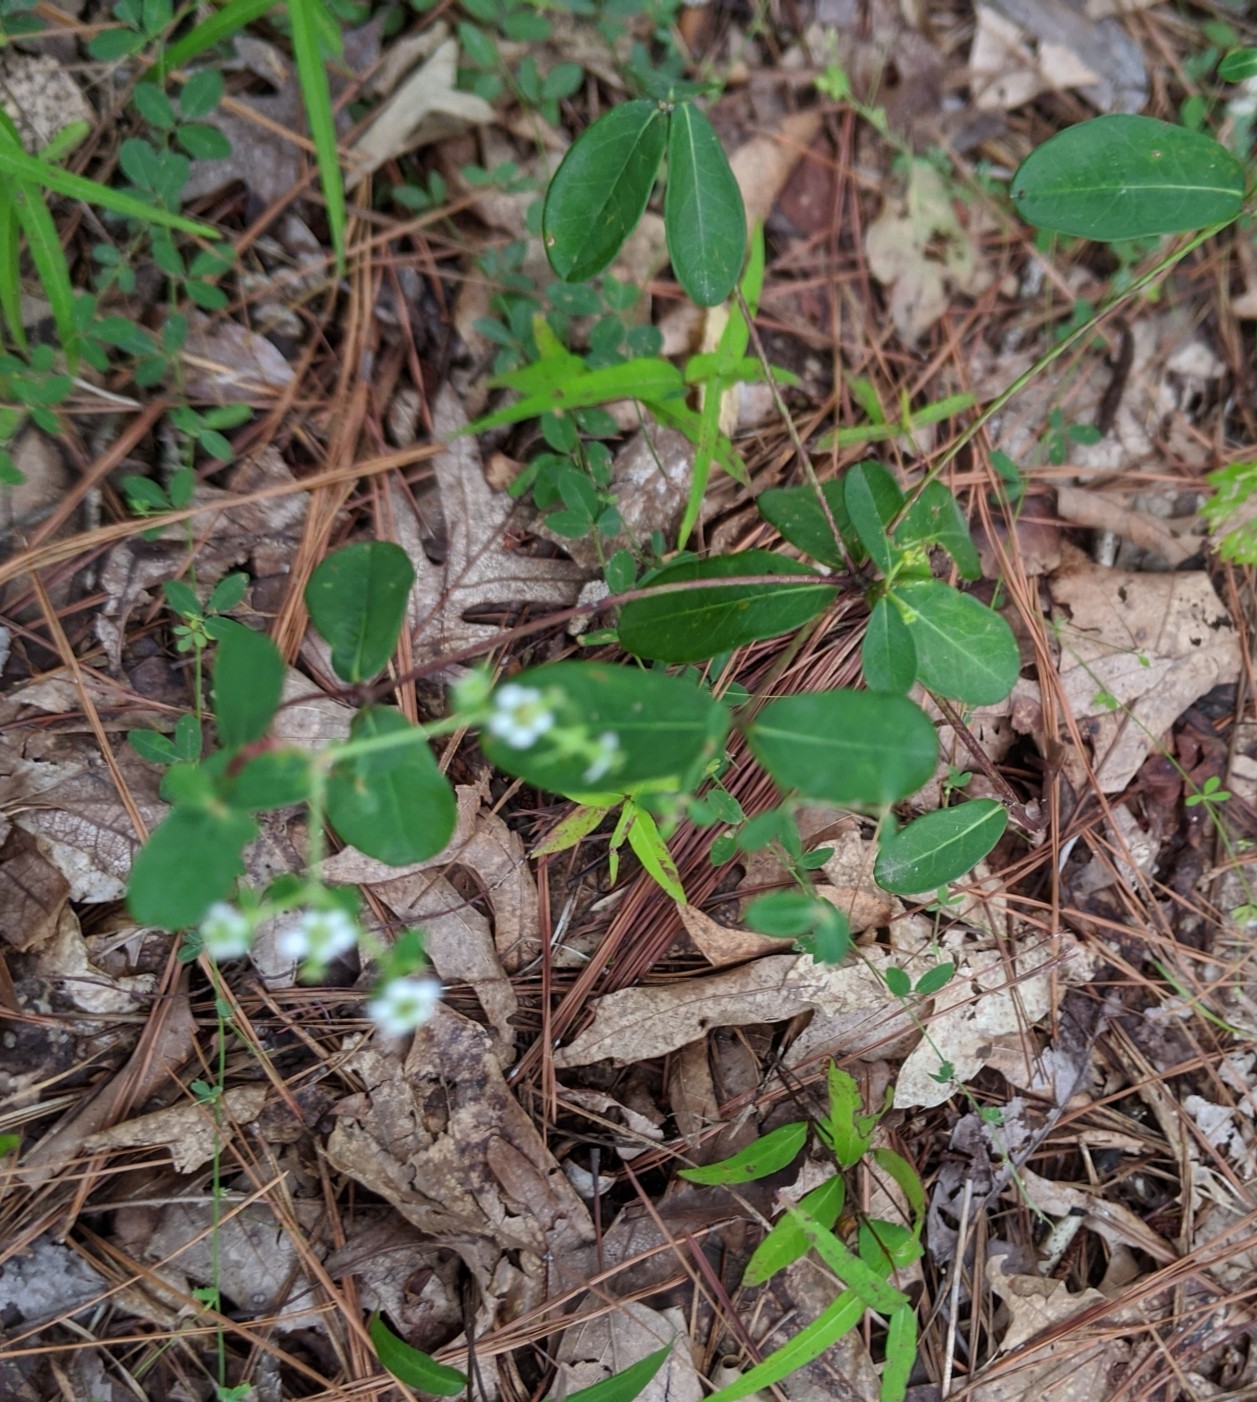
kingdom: Plantae
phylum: Tracheophyta
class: Magnoliopsida
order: Malpighiales
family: Euphorbiaceae
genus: Euphorbia
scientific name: Euphorbia corollata
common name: Flowering spurge
